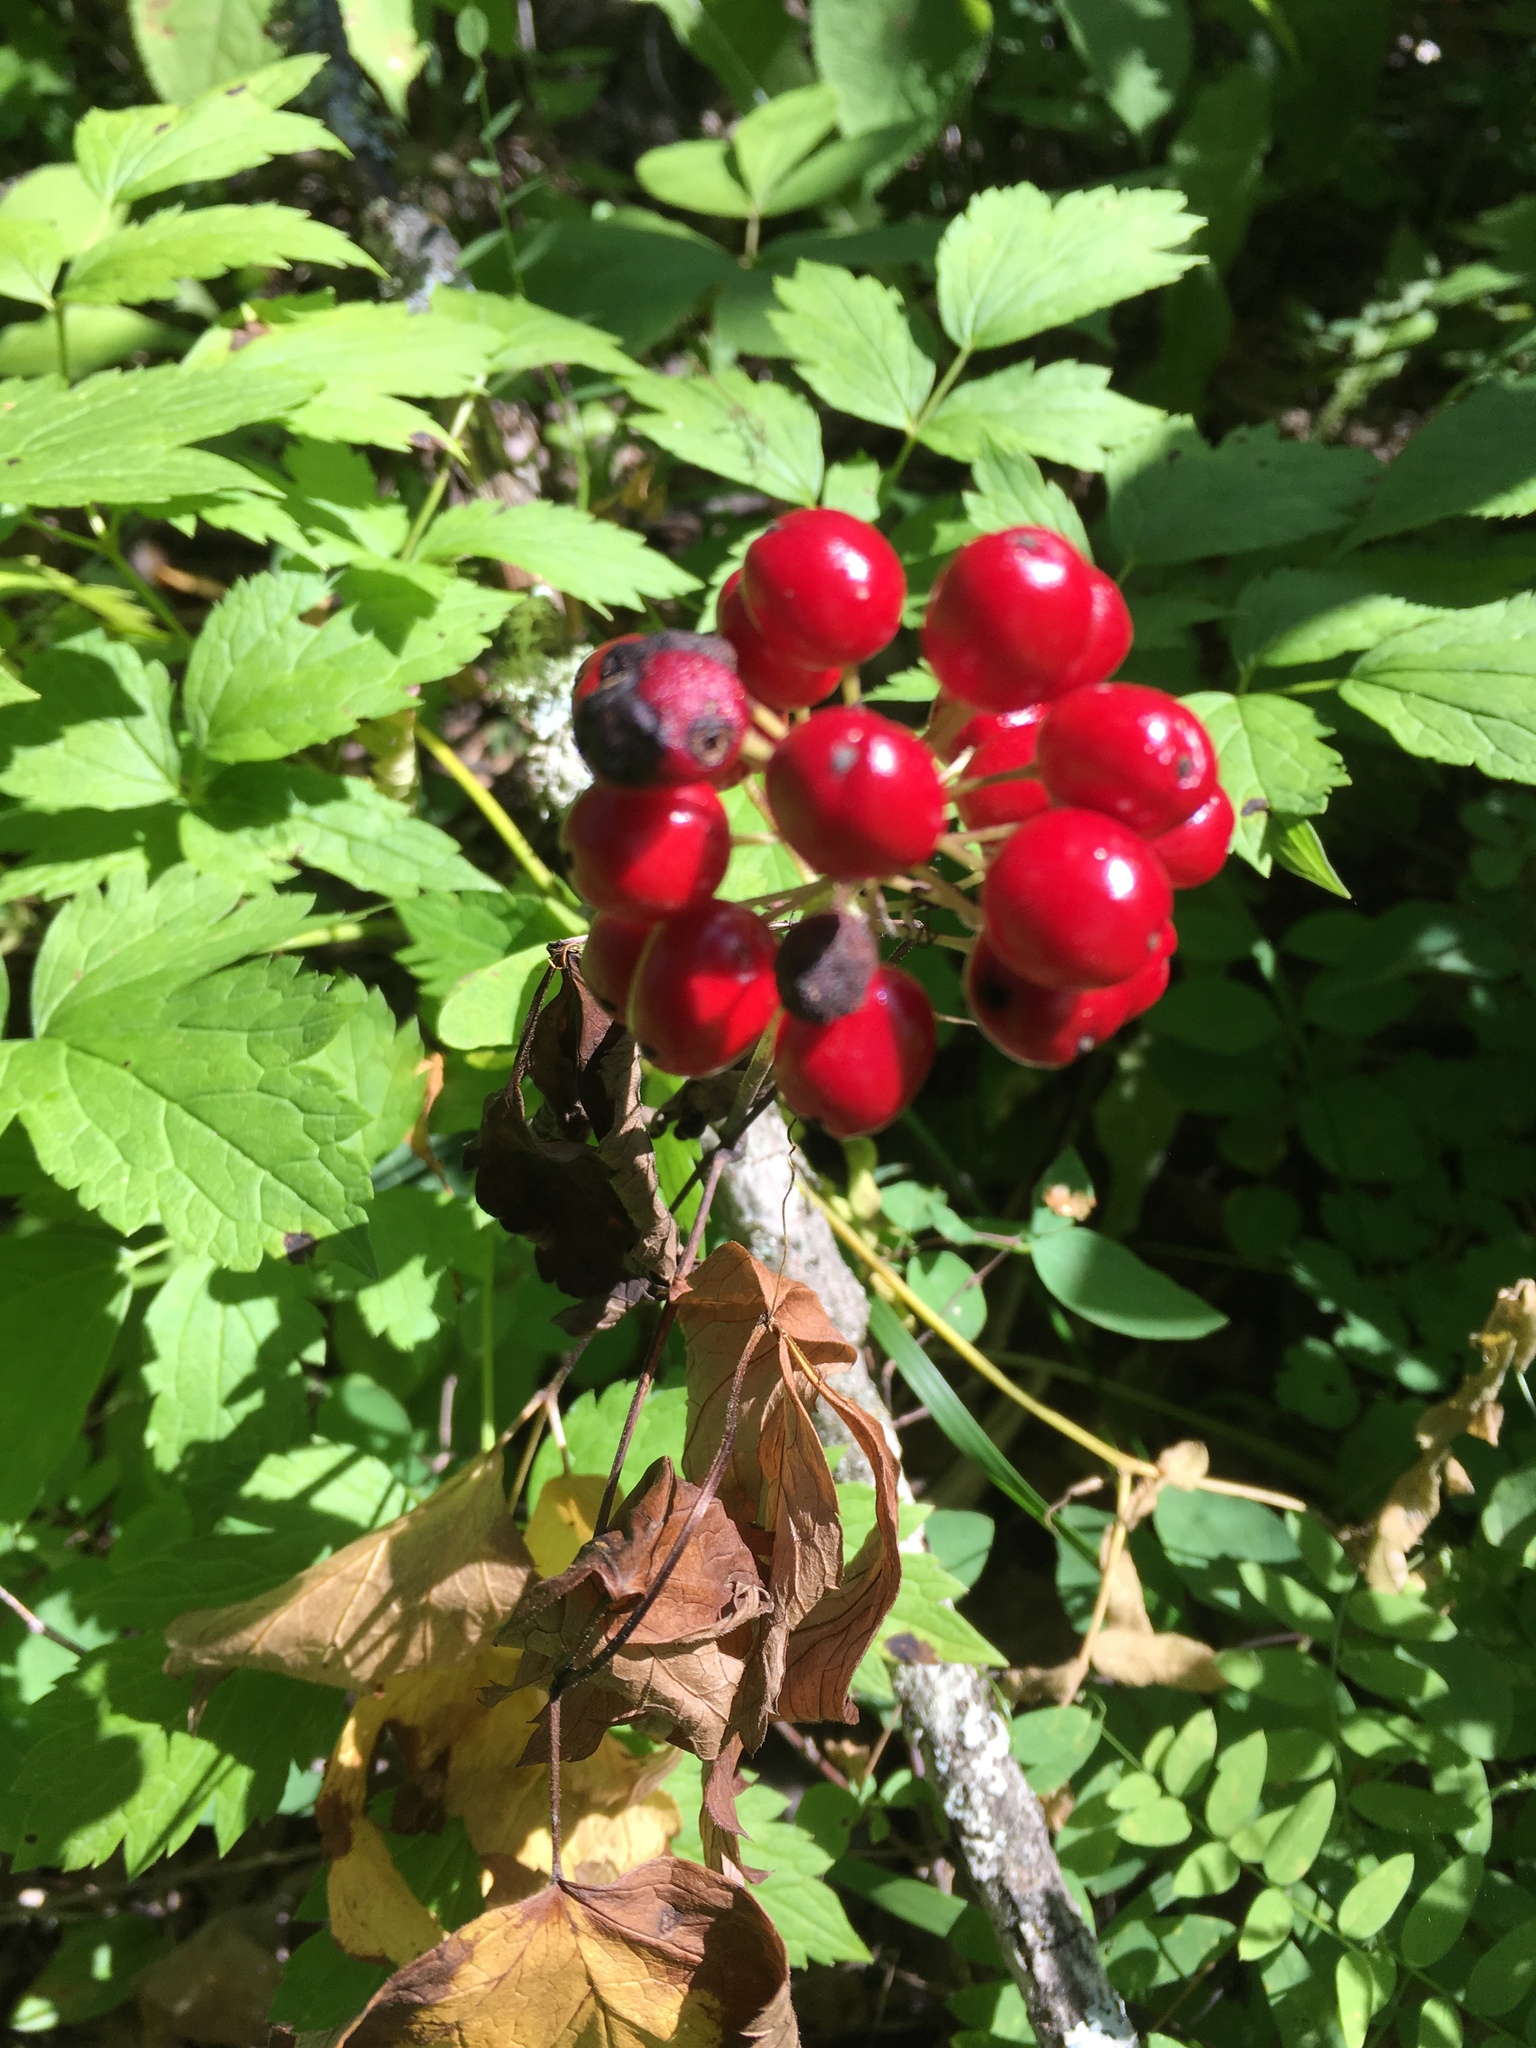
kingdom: Plantae
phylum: Tracheophyta
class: Magnoliopsida
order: Ranunculales
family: Ranunculaceae
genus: Actaea
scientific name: Actaea rubra
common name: Red baneberry
